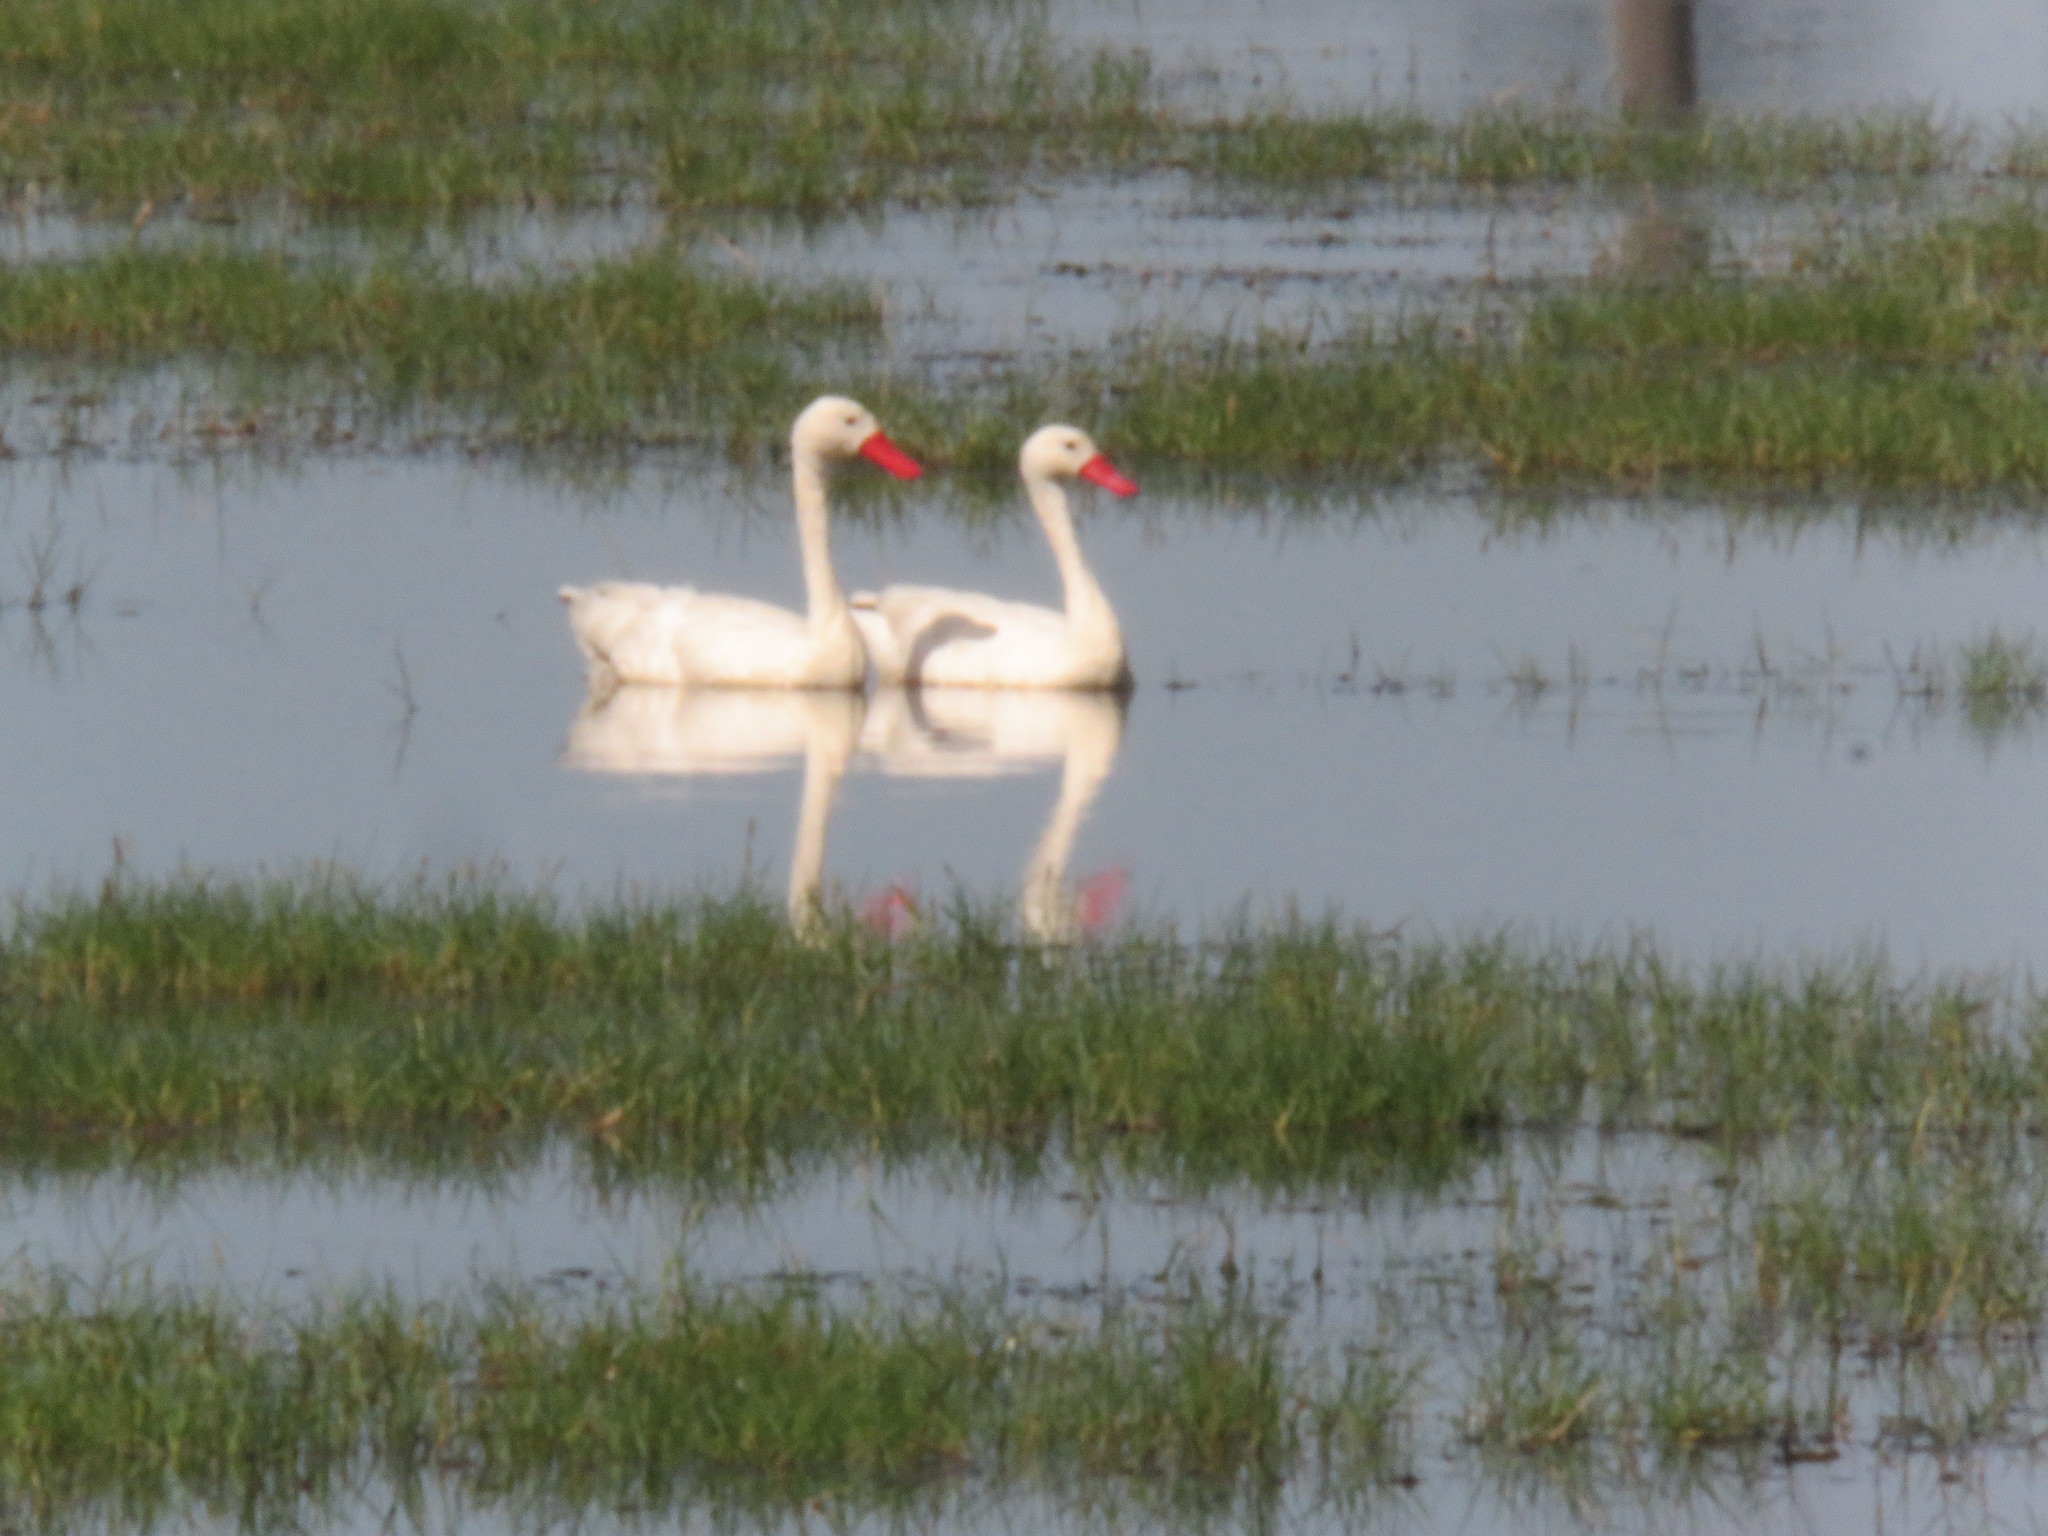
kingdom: Animalia
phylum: Chordata
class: Aves
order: Anseriformes
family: Anatidae
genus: Coscoroba
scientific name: Coscoroba coscoroba
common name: Coscoroba swan
